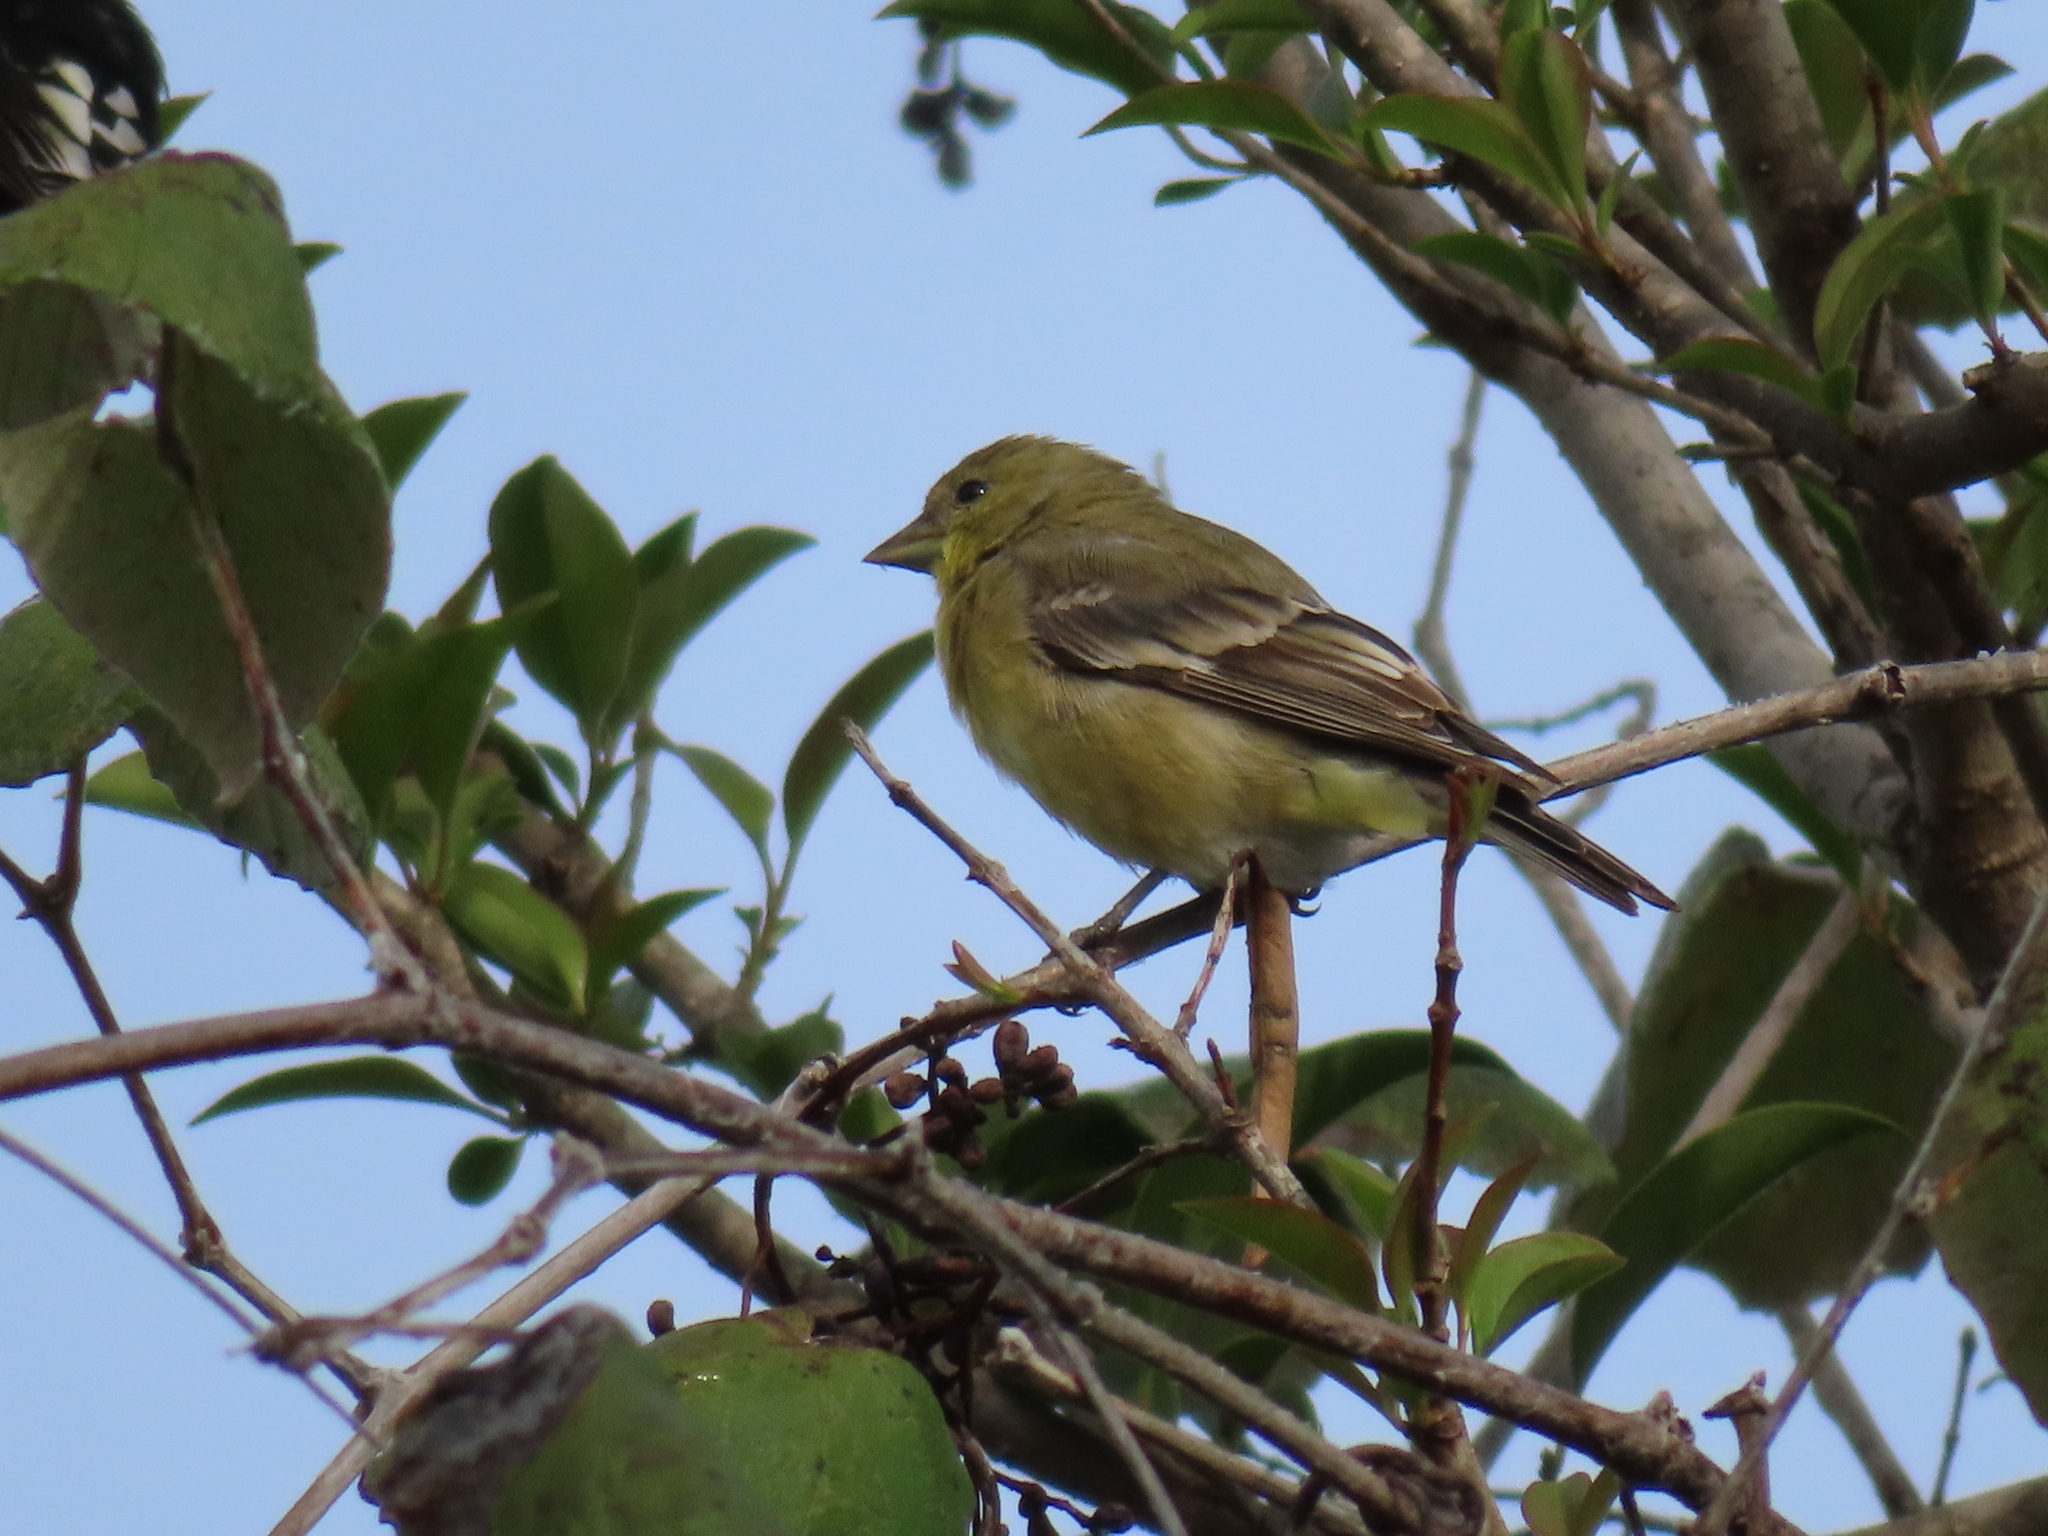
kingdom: Animalia
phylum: Chordata
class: Aves
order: Passeriformes
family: Fringillidae
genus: Spinus
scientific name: Spinus psaltria
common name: Lesser goldfinch
